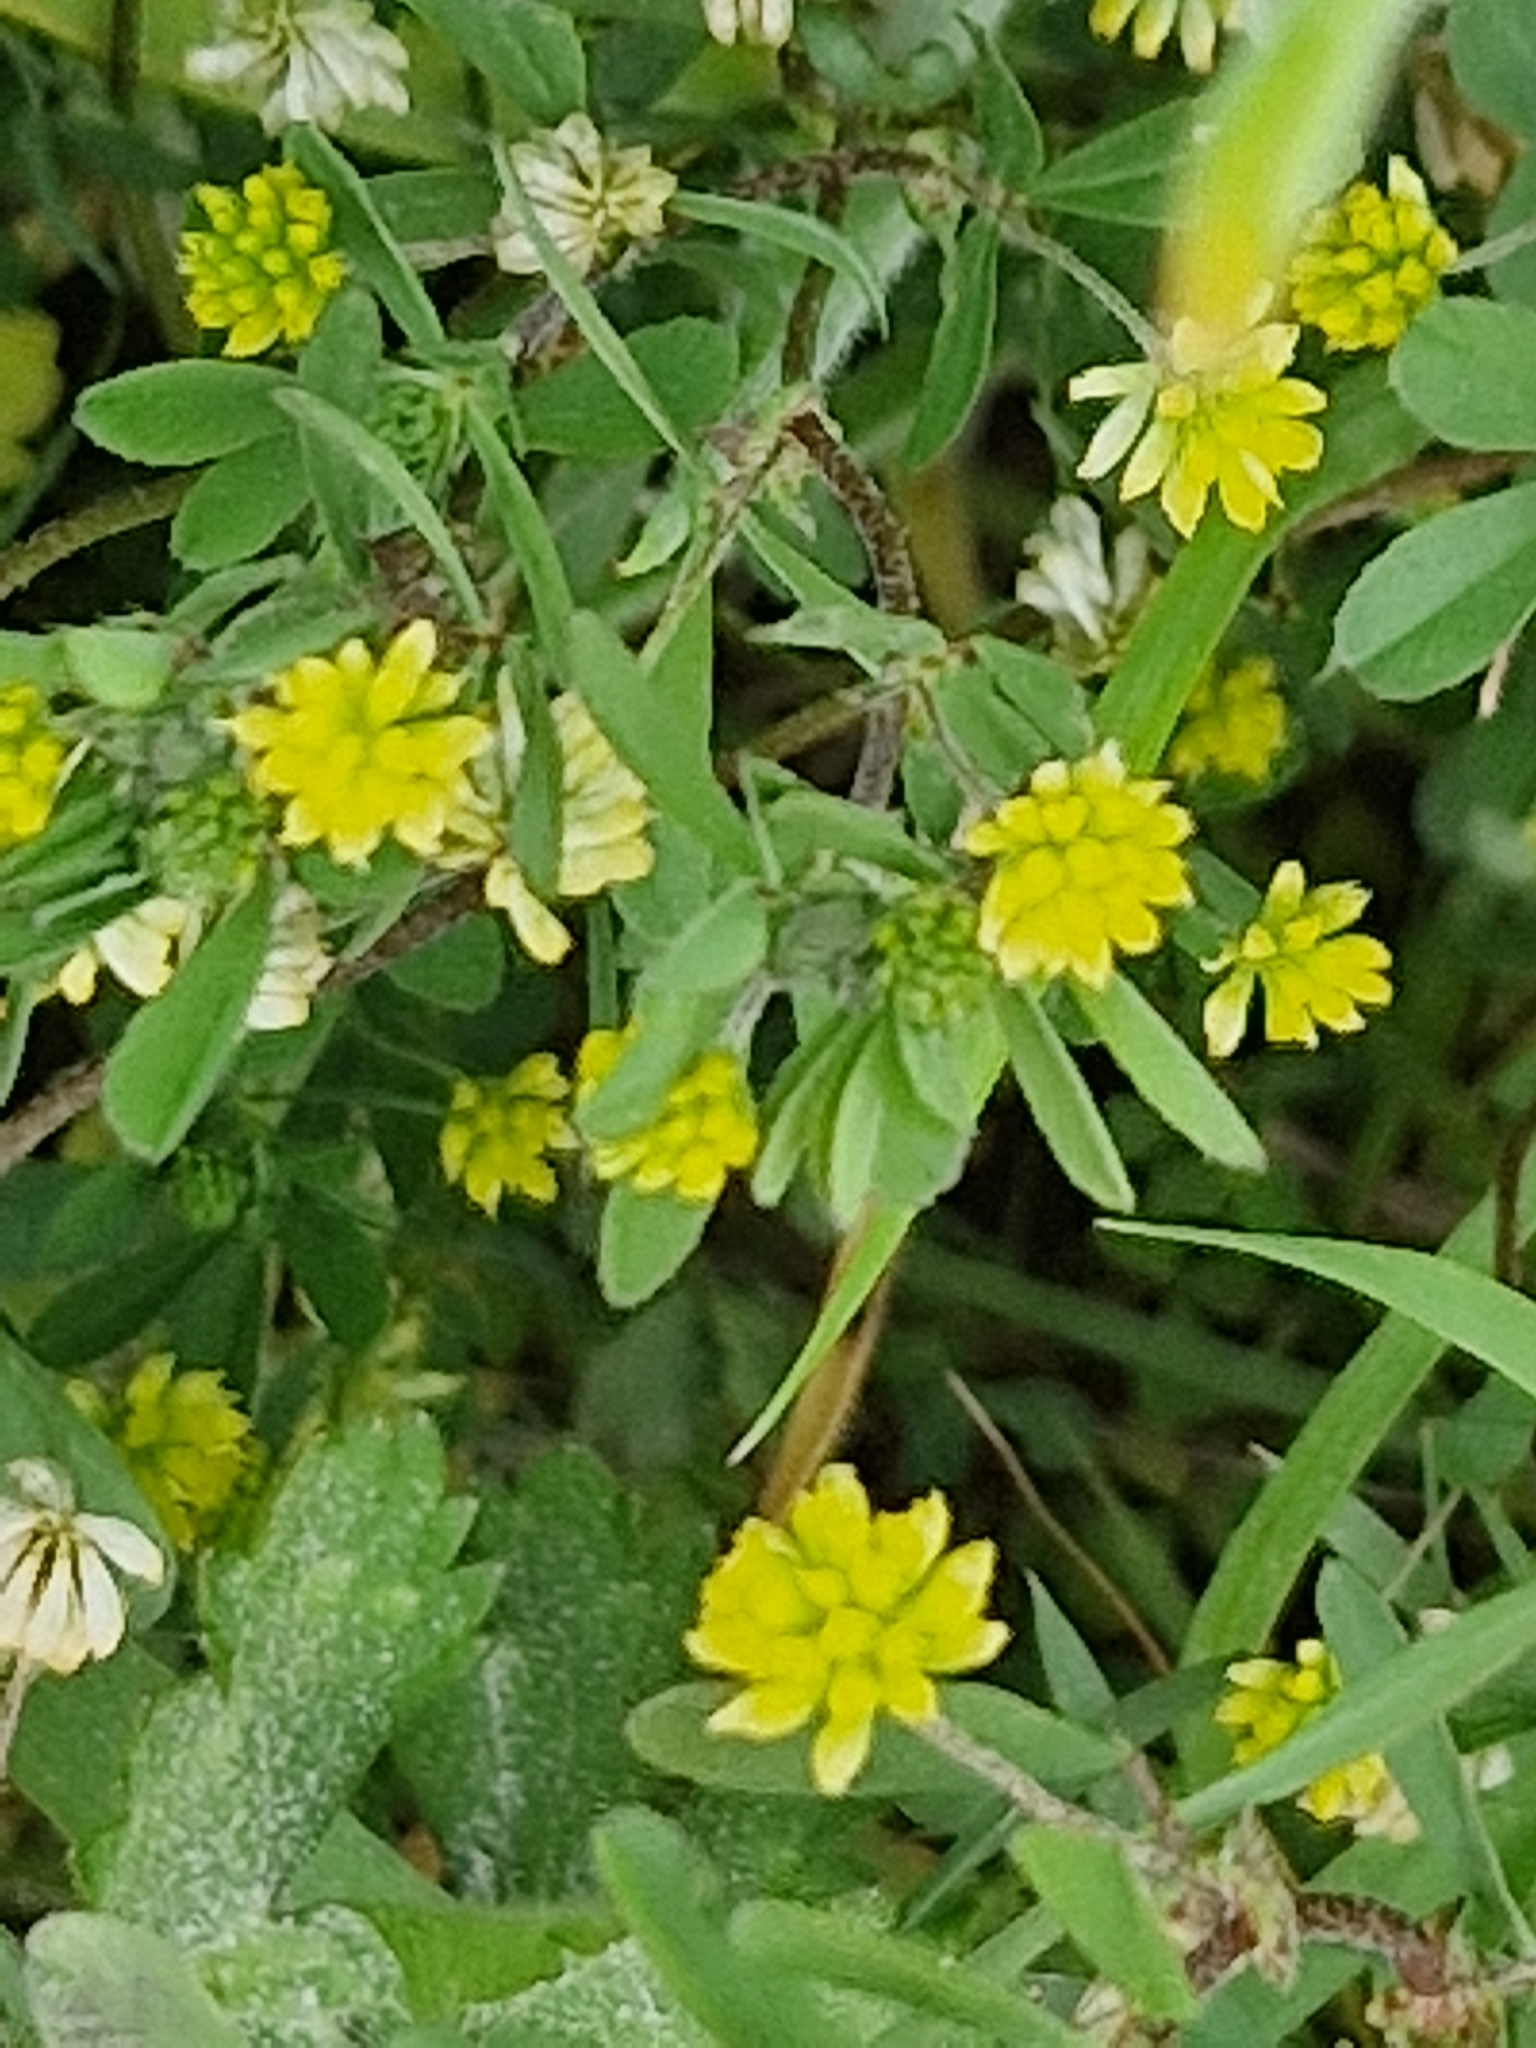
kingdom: Plantae
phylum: Tracheophyta
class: Magnoliopsida
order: Fabales
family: Fabaceae
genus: Trifolium
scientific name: Trifolium dubium
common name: Suckling clover
